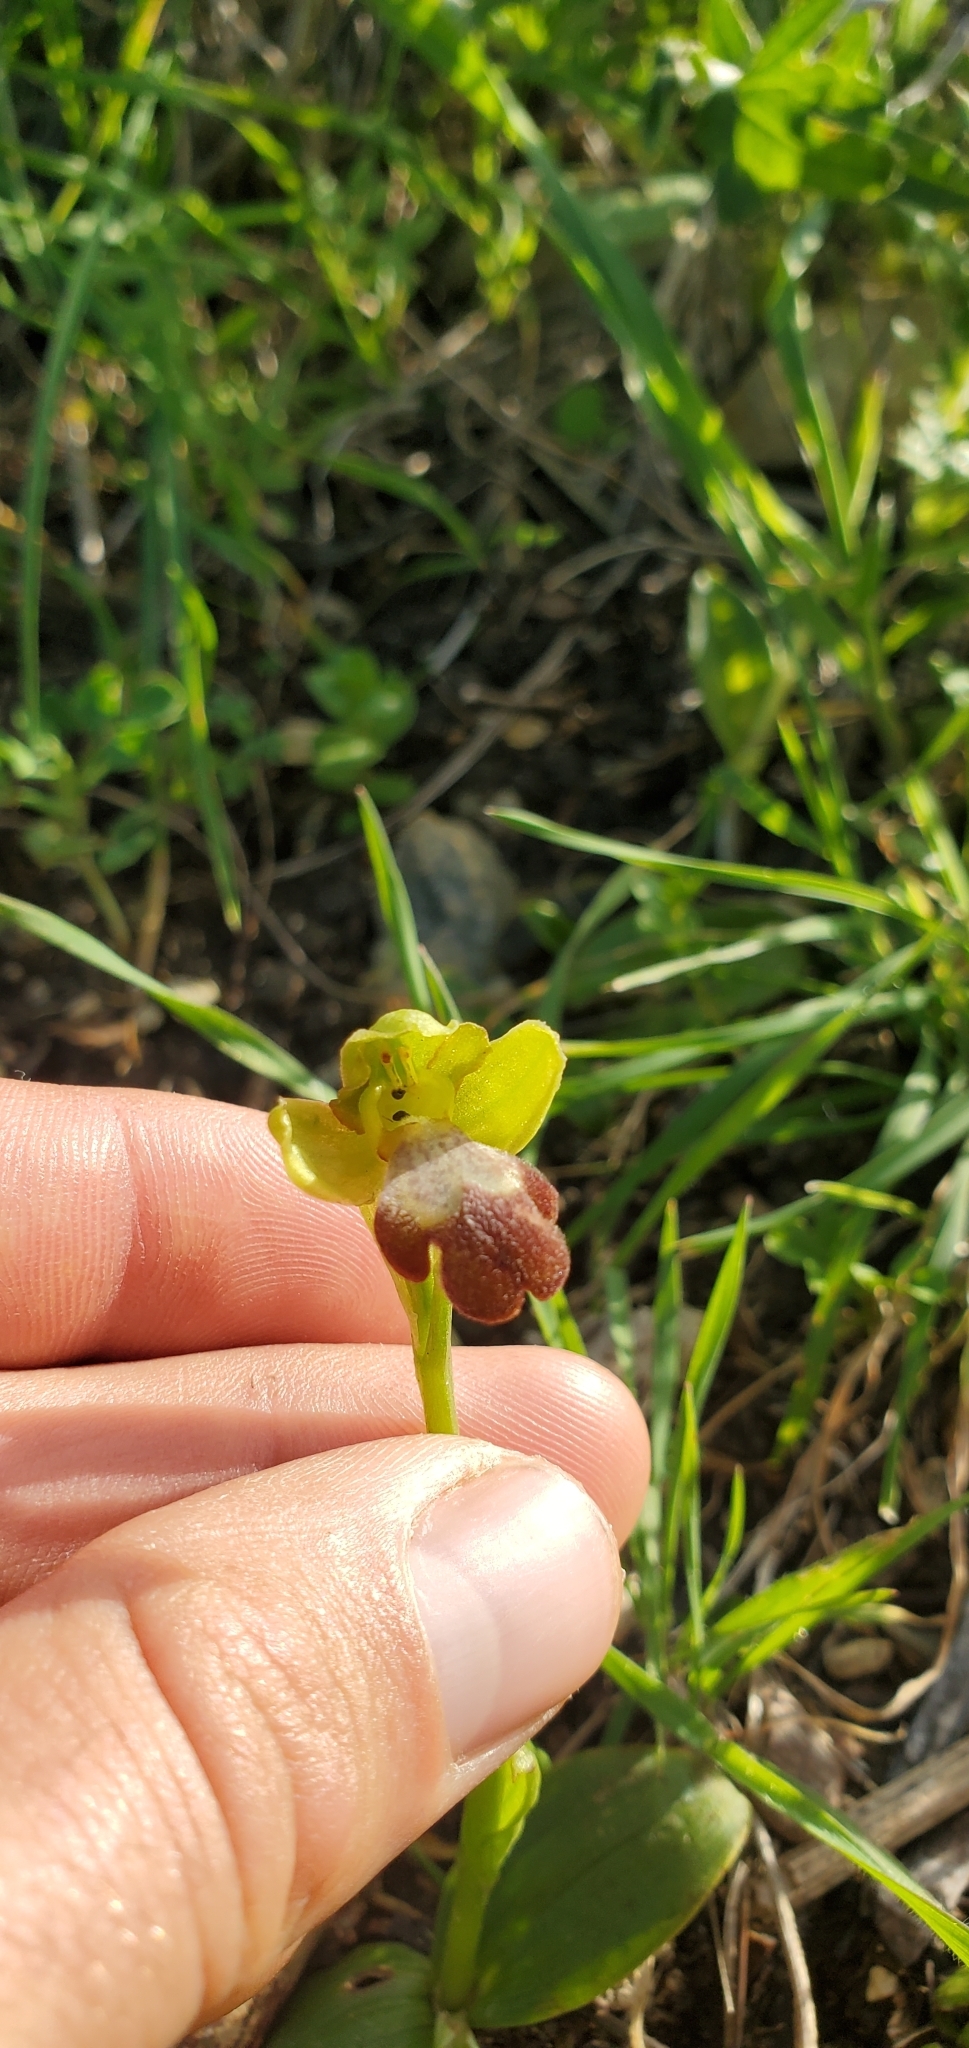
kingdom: Plantae
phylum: Tracheophyta
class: Liliopsida
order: Asparagales
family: Orchidaceae
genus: Ophrys
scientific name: Ophrys omegaifera
